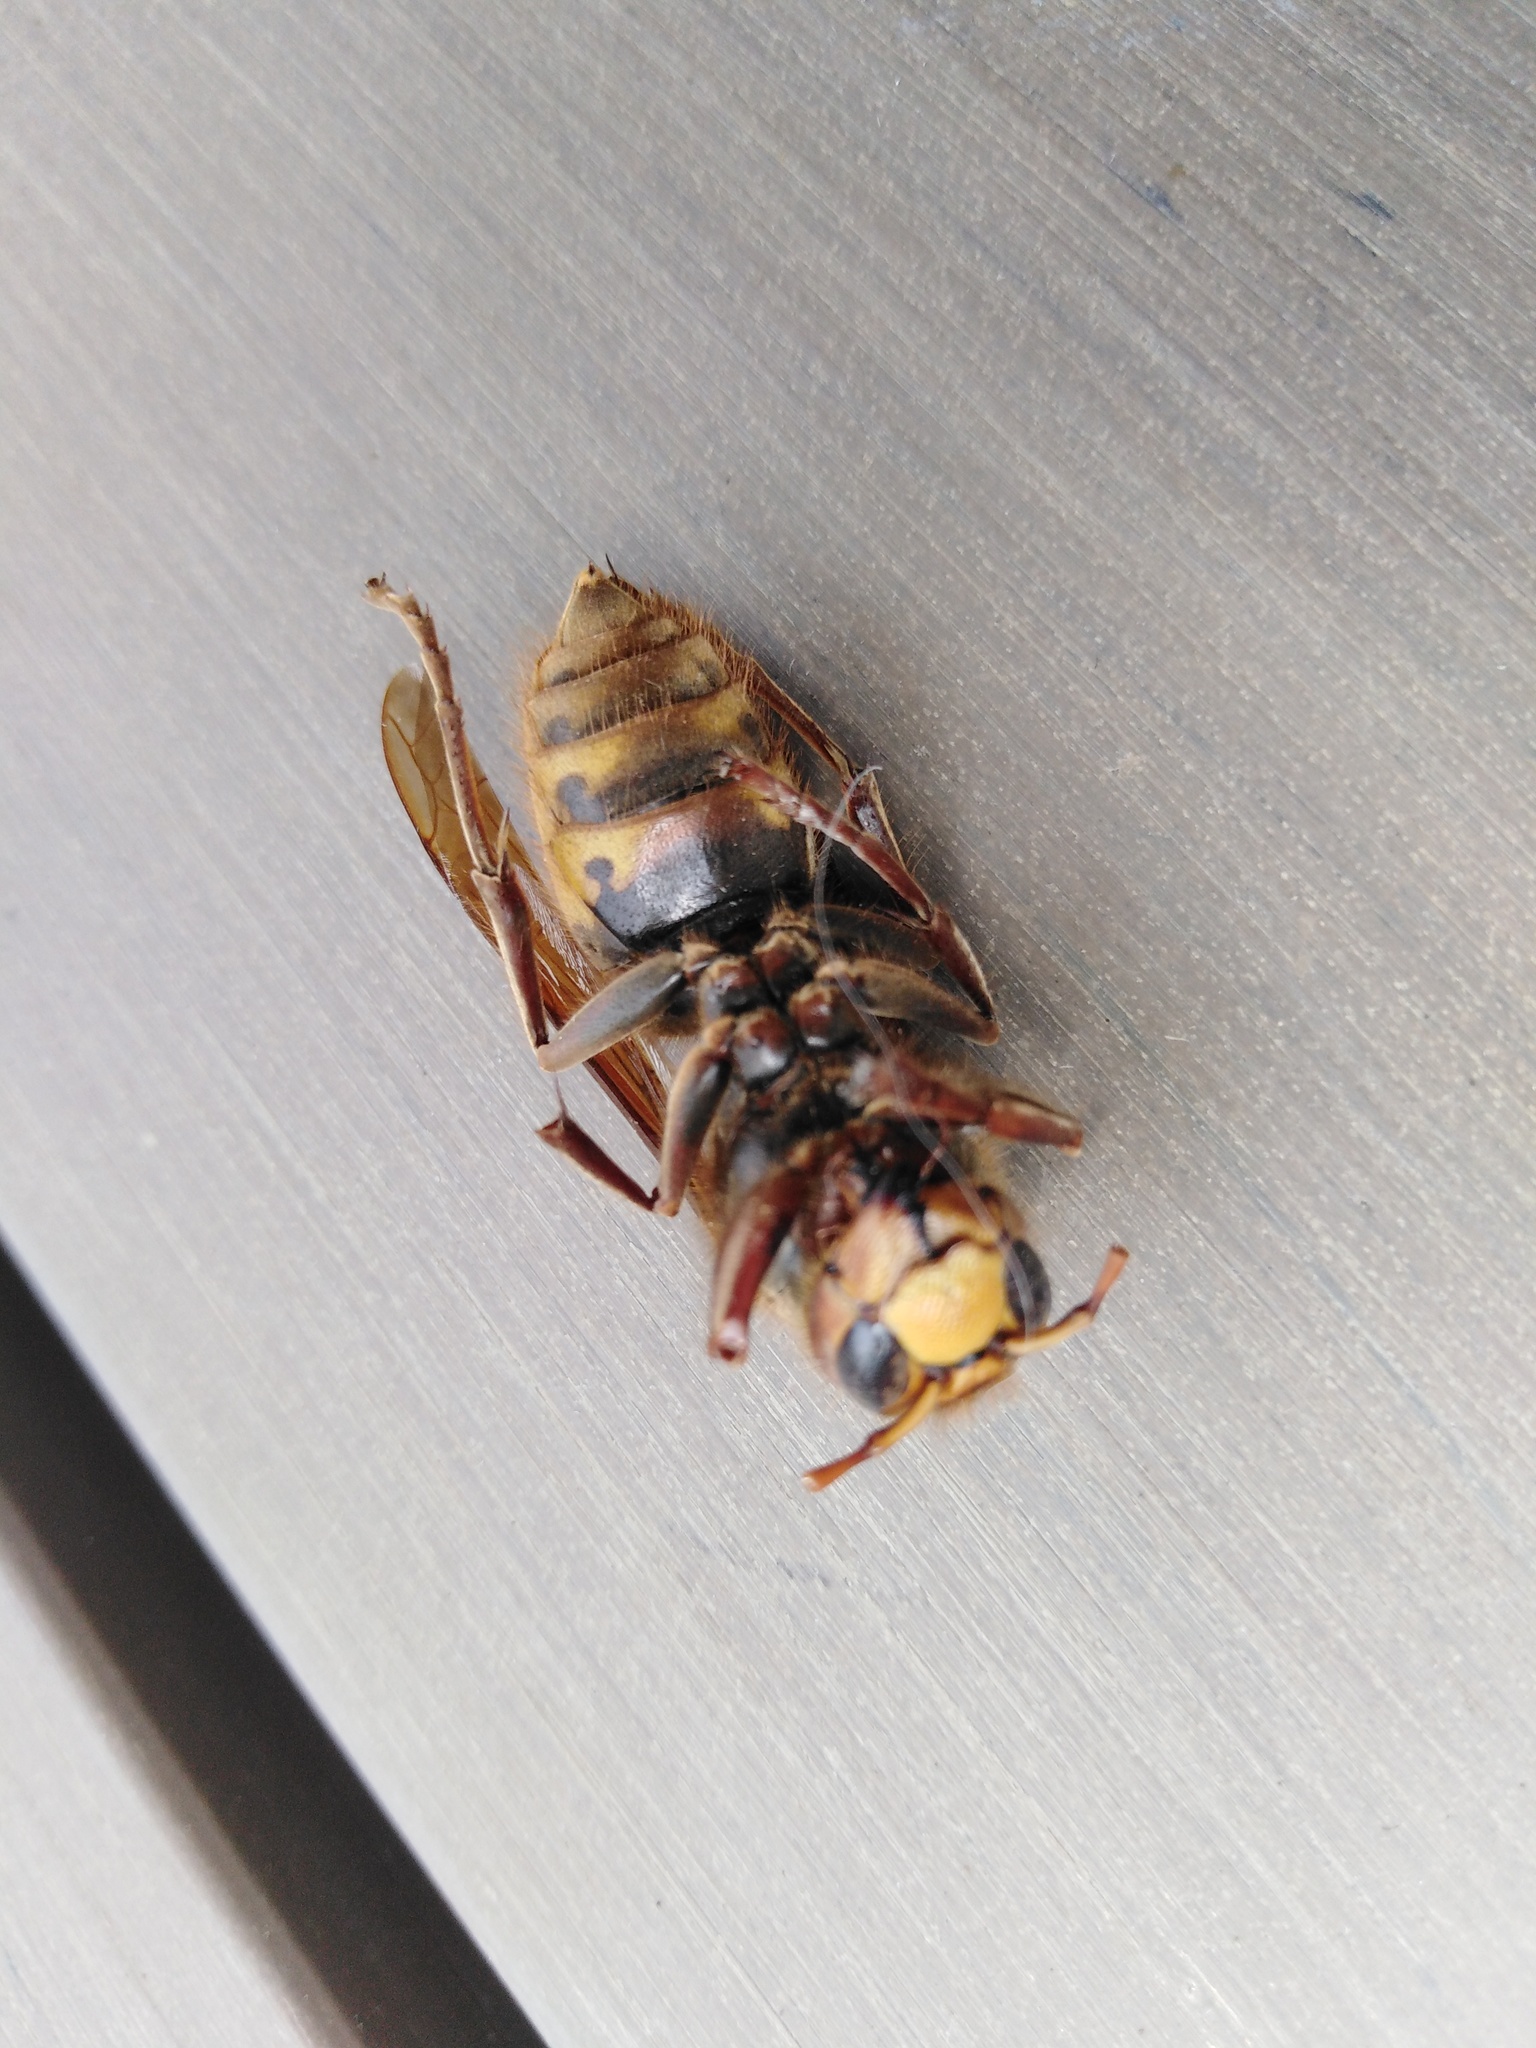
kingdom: Animalia
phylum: Arthropoda
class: Insecta
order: Hymenoptera
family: Vespidae
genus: Vespa
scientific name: Vespa crabro
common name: Hornet
